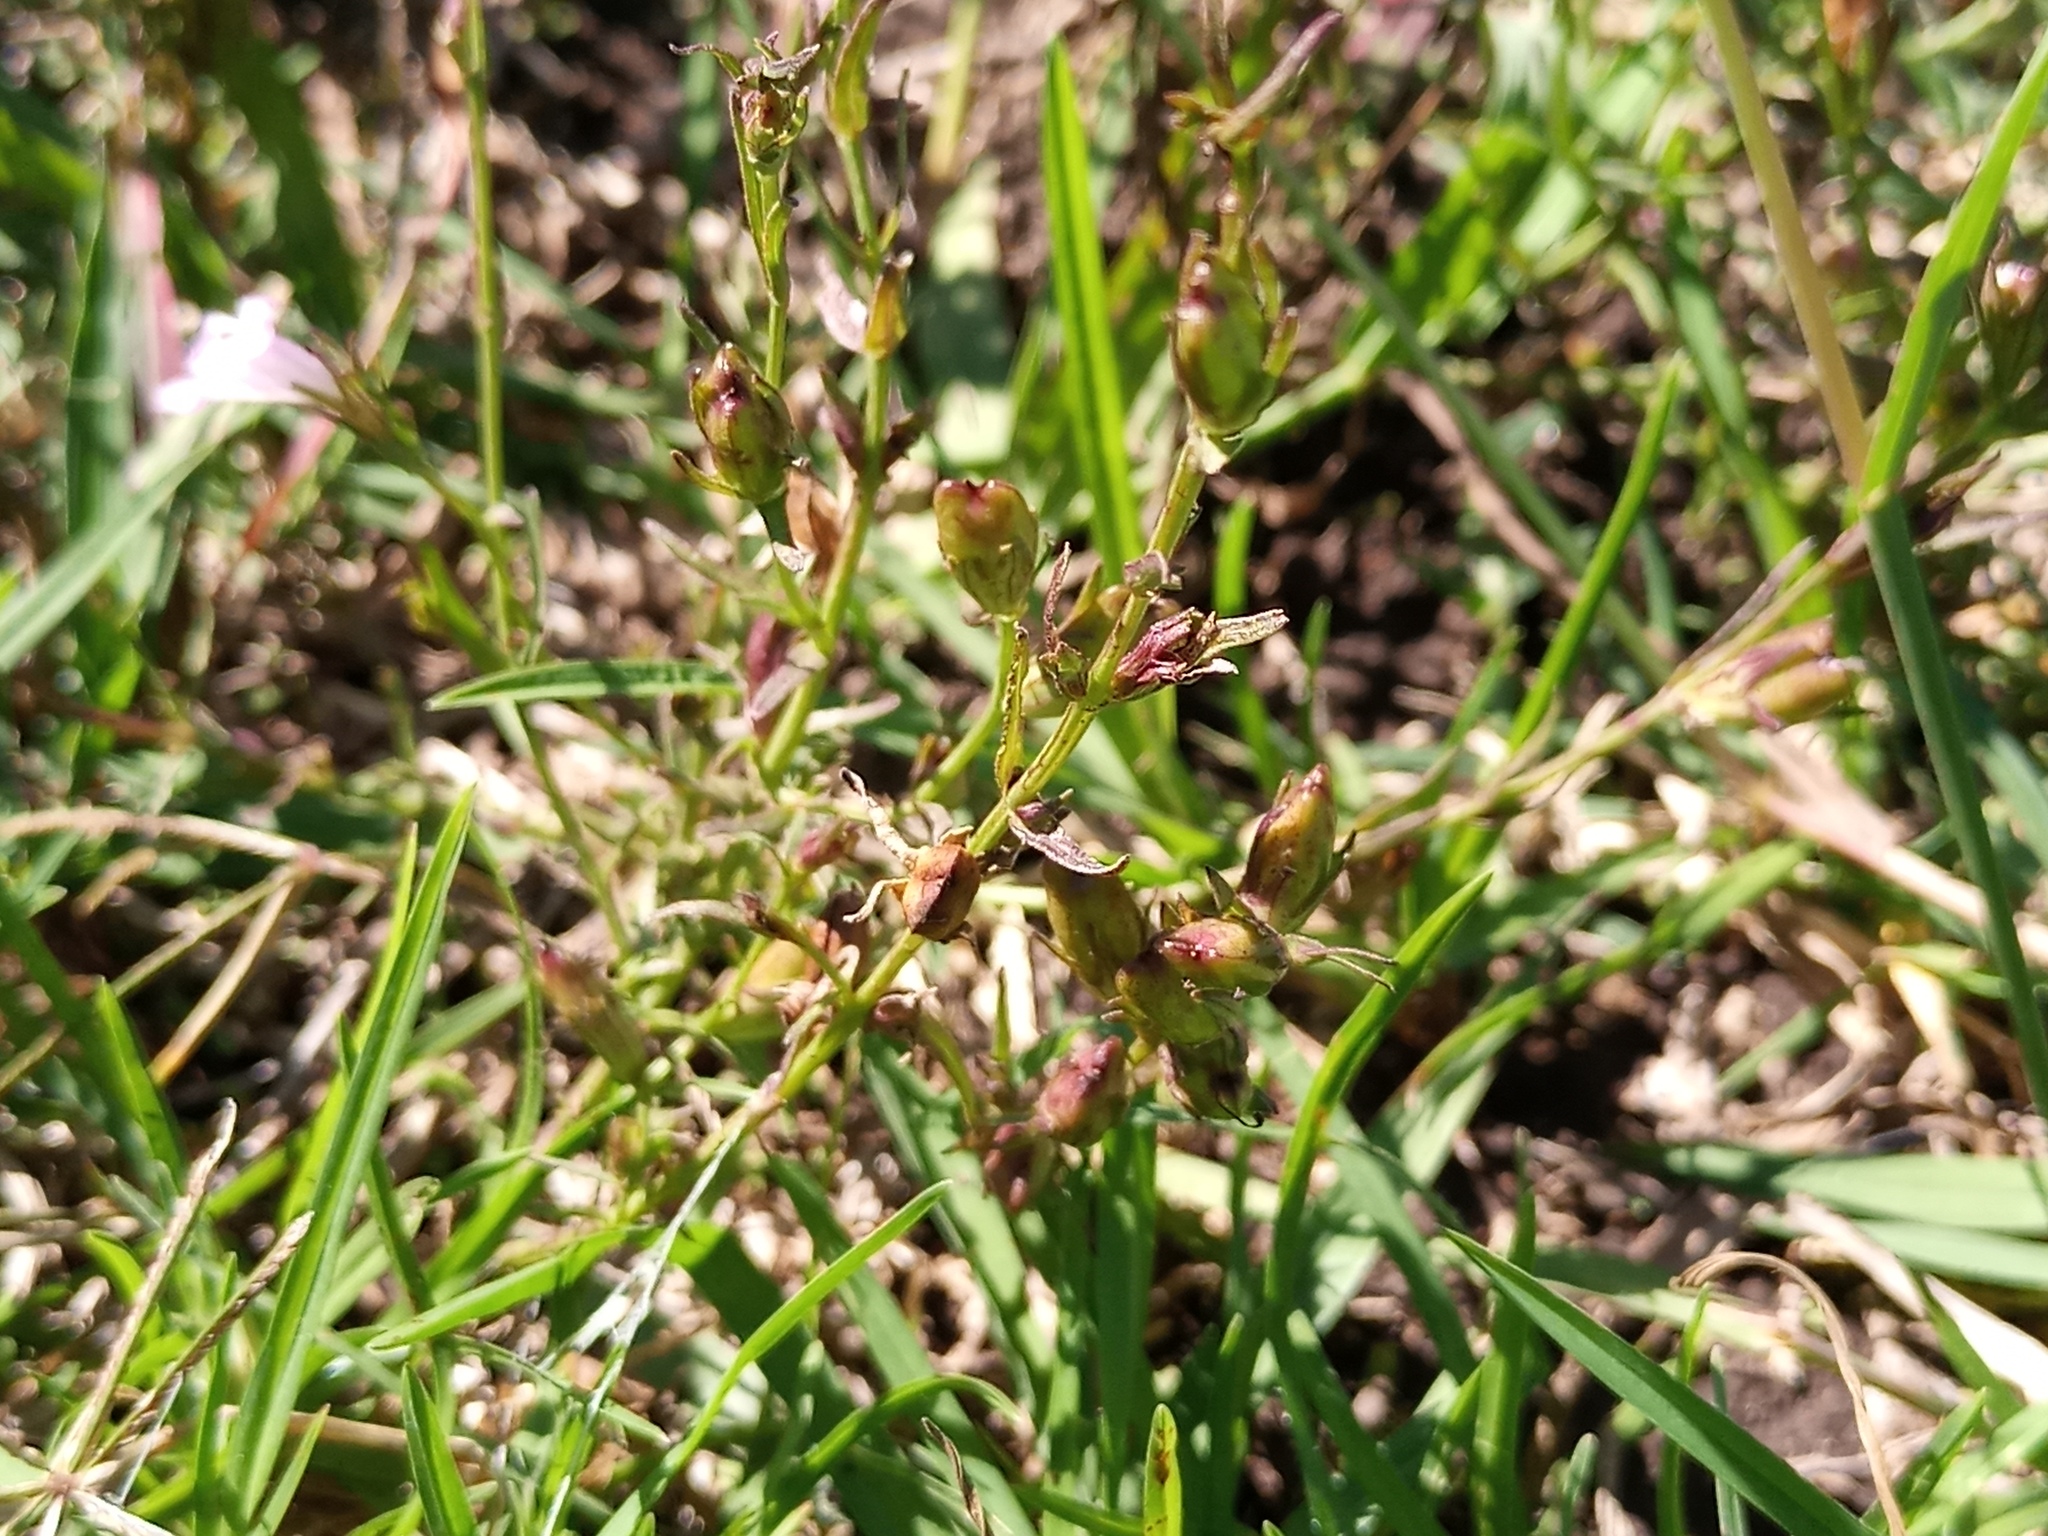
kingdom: Plantae
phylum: Tracheophyta
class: Magnoliopsida
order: Lamiales
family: Orobanchaceae
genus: Agalinis
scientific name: Agalinis communis
